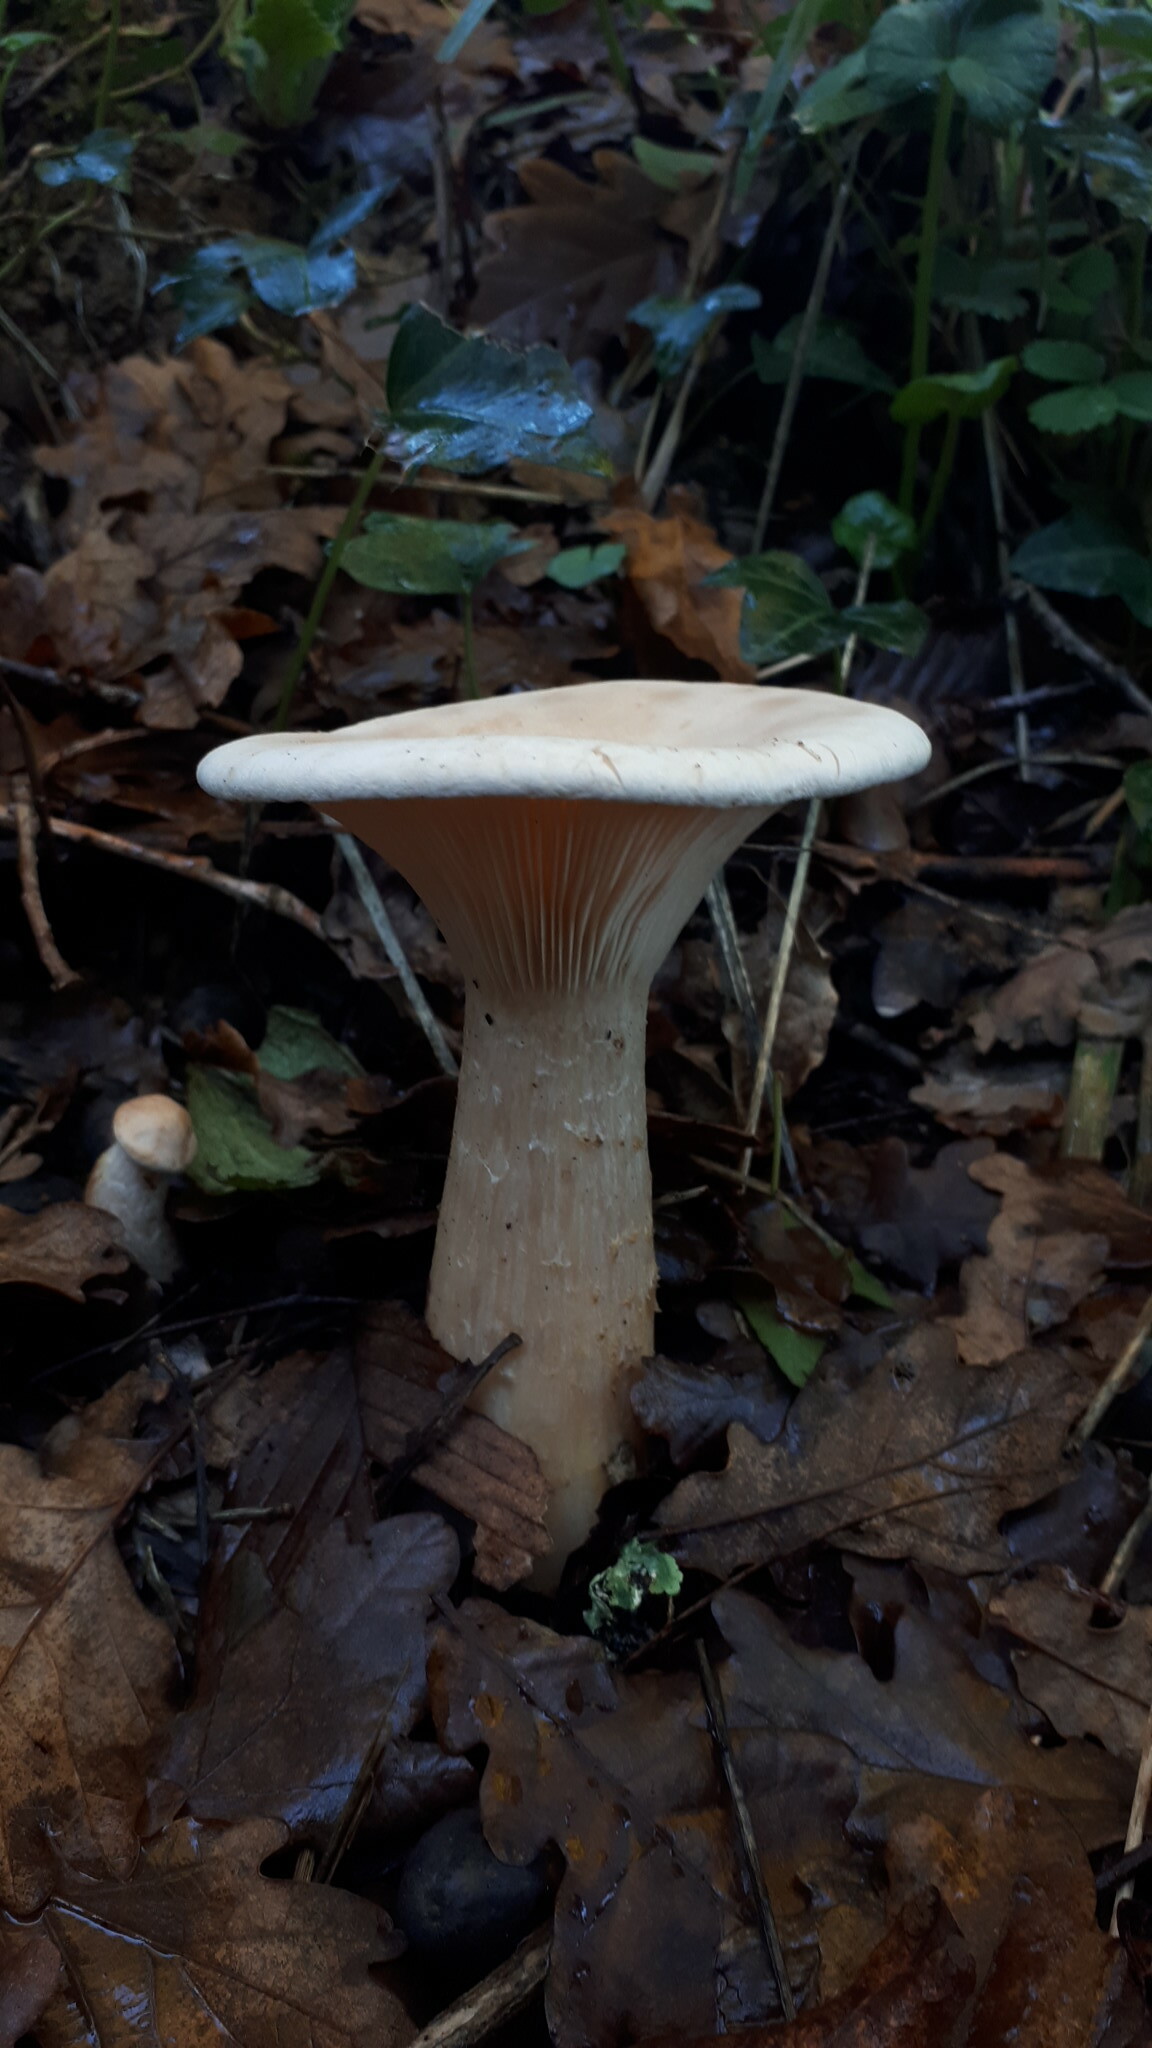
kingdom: Fungi
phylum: Basidiomycota
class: Agaricomycetes
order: Agaricales
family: Tricholomataceae
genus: Infundibulicybe
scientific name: Infundibulicybe geotropa
